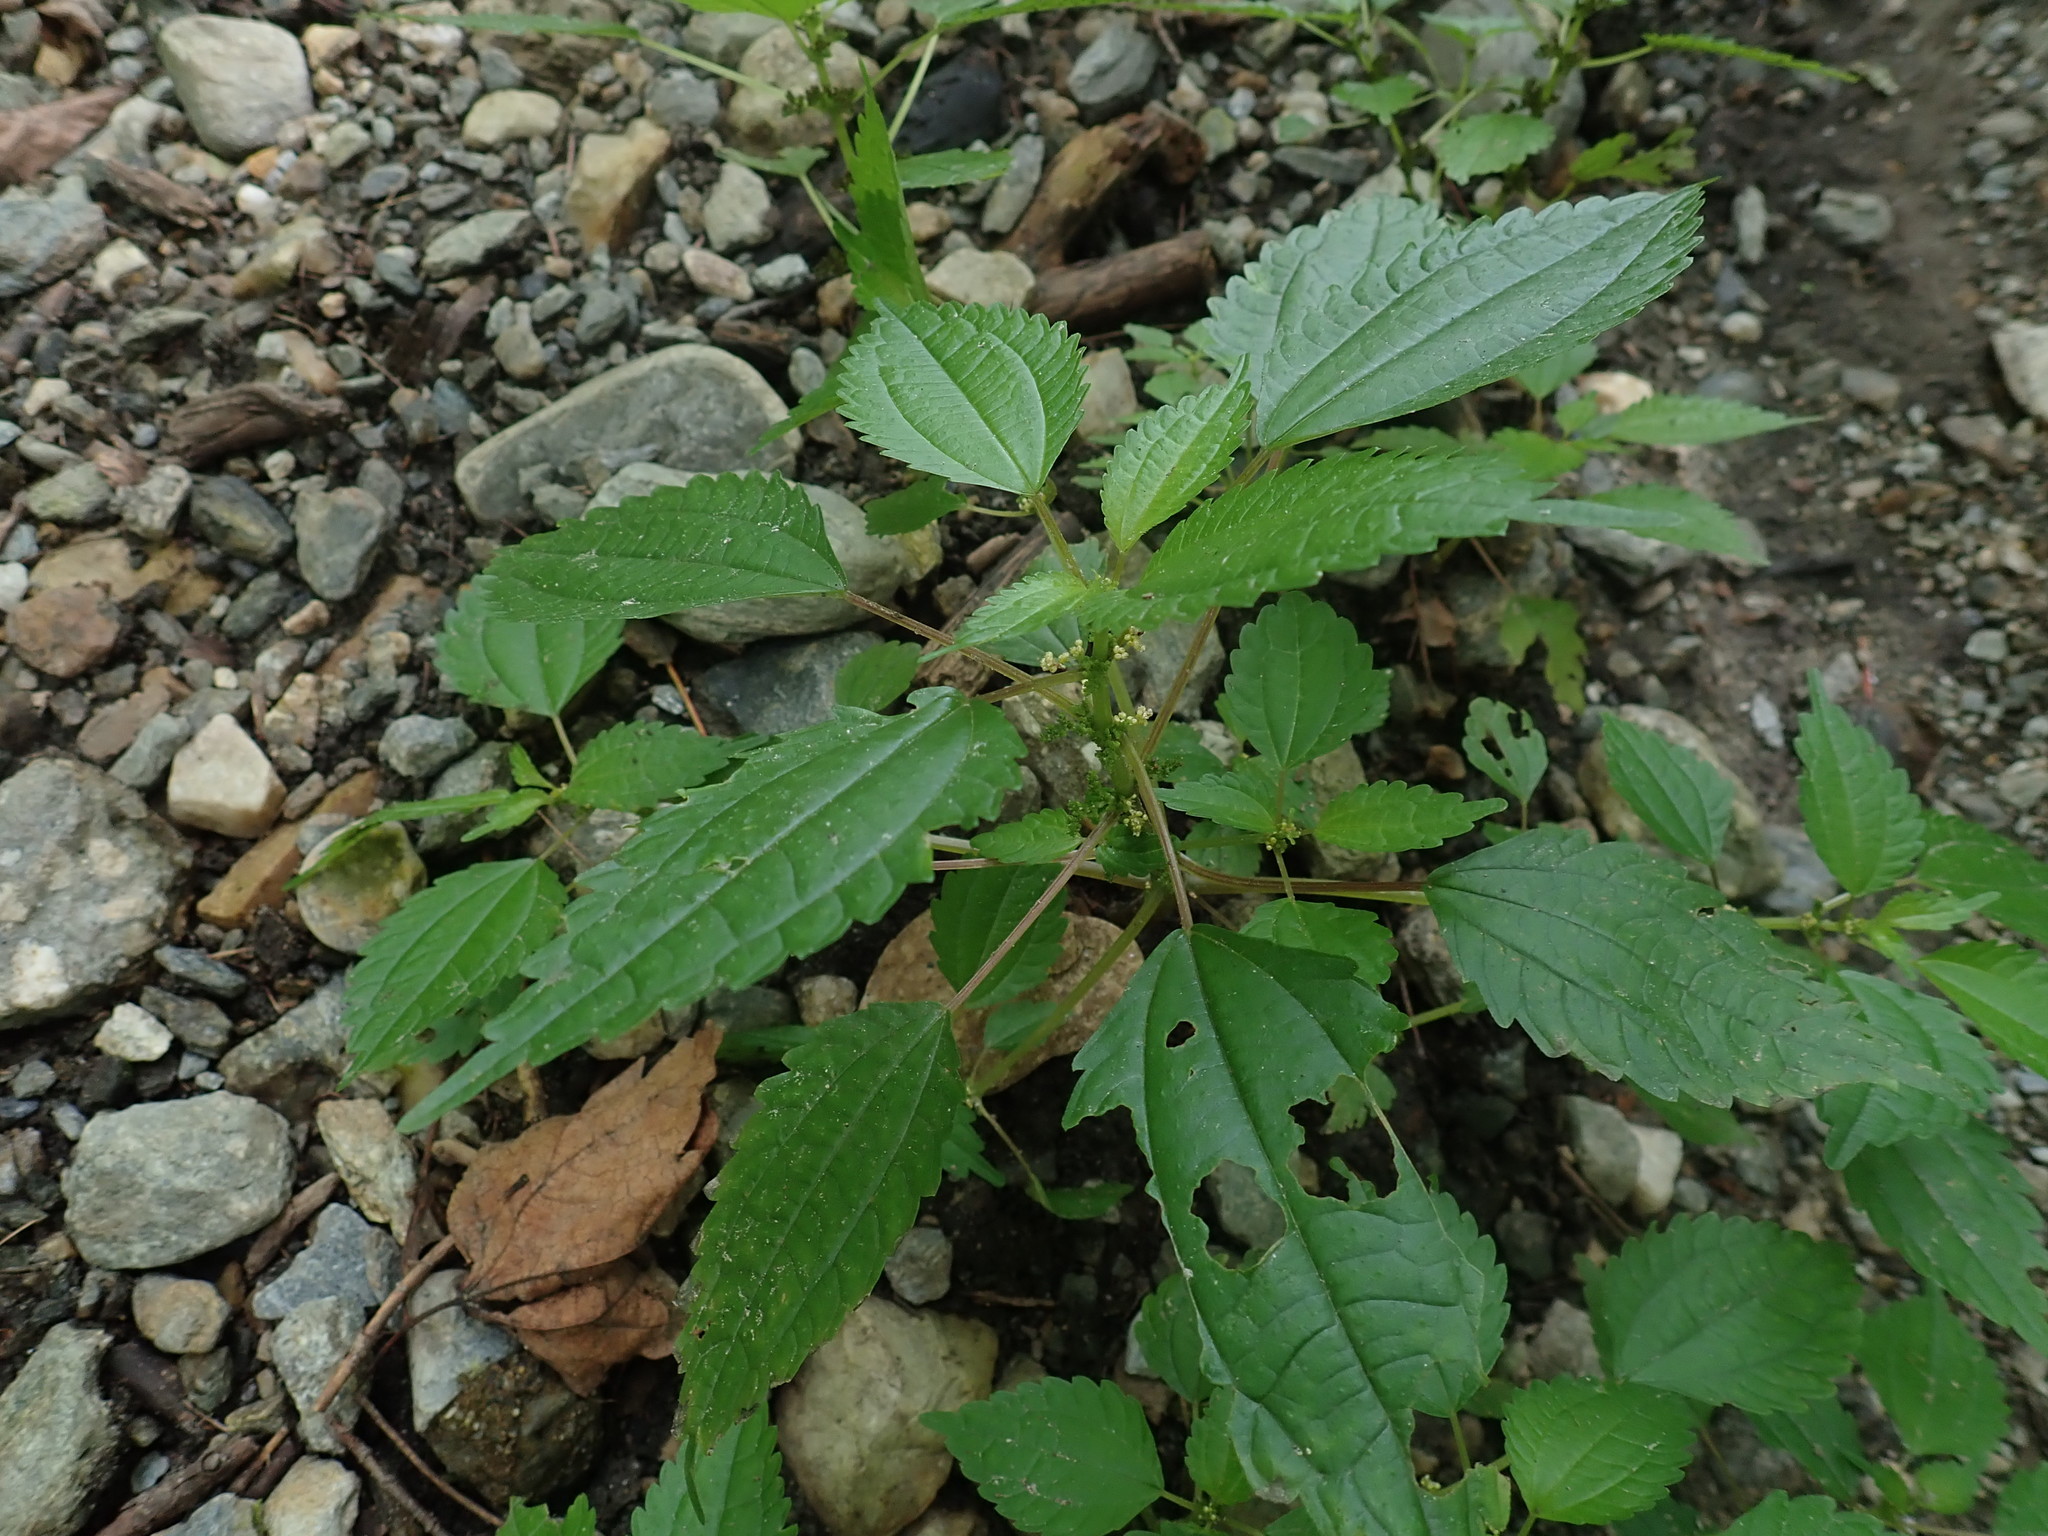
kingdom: Plantae
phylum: Tracheophyta
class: Magnoliopsida
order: Rosales
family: Urticaceae
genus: Pilea
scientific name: Pilea pumila
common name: Clearweed
